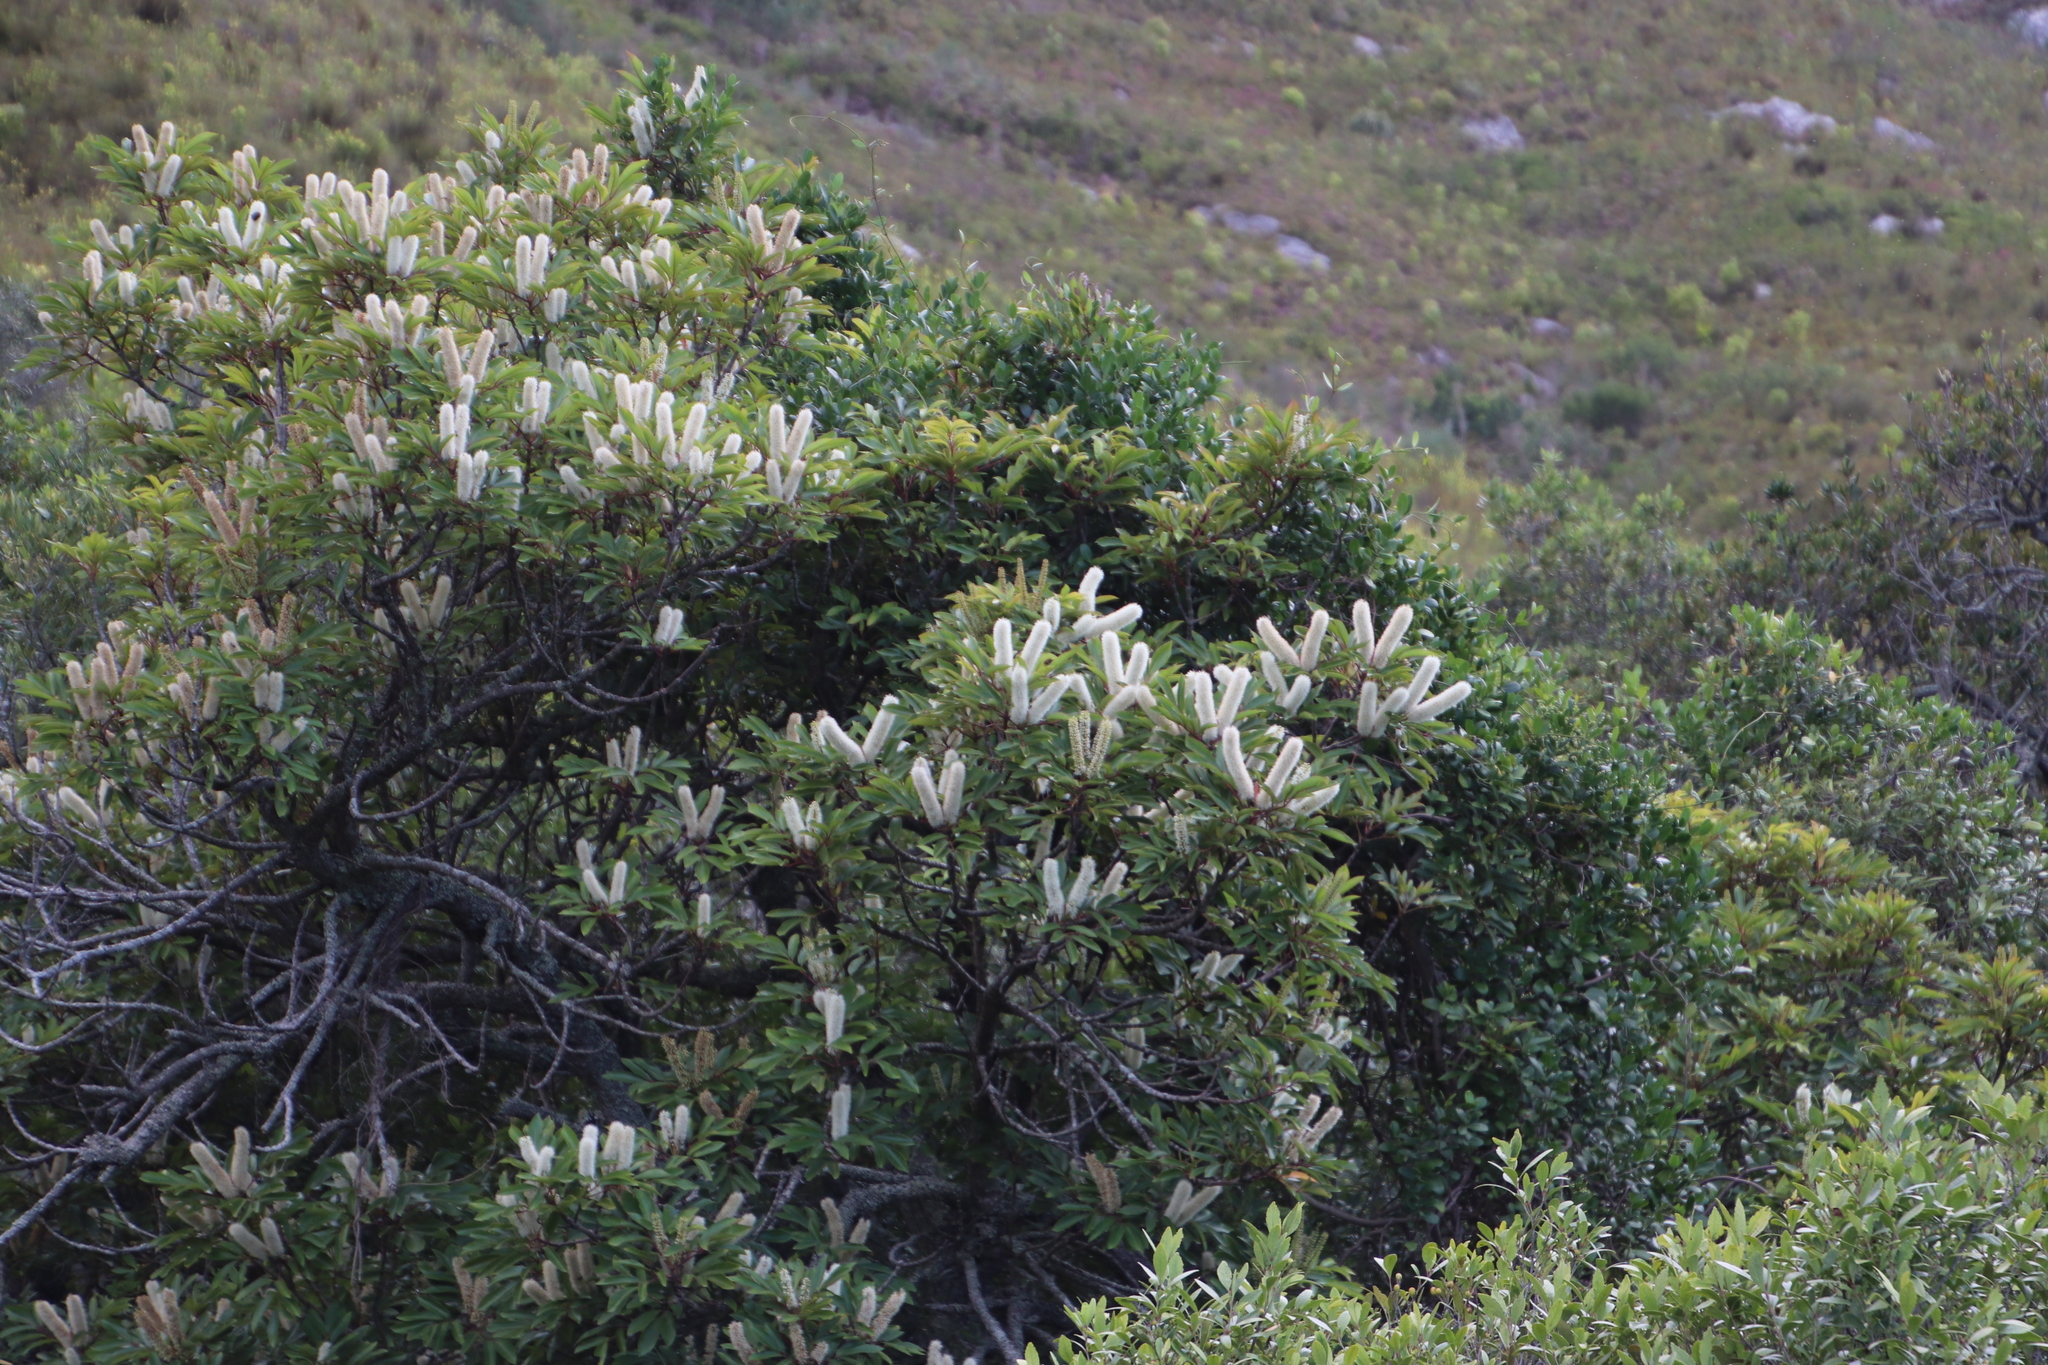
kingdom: Plantae
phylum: Tracheophyta
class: Magnoliopsida
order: Oxalidales
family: Cunoniaceae
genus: Cunonia
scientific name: Cunonia capensis
